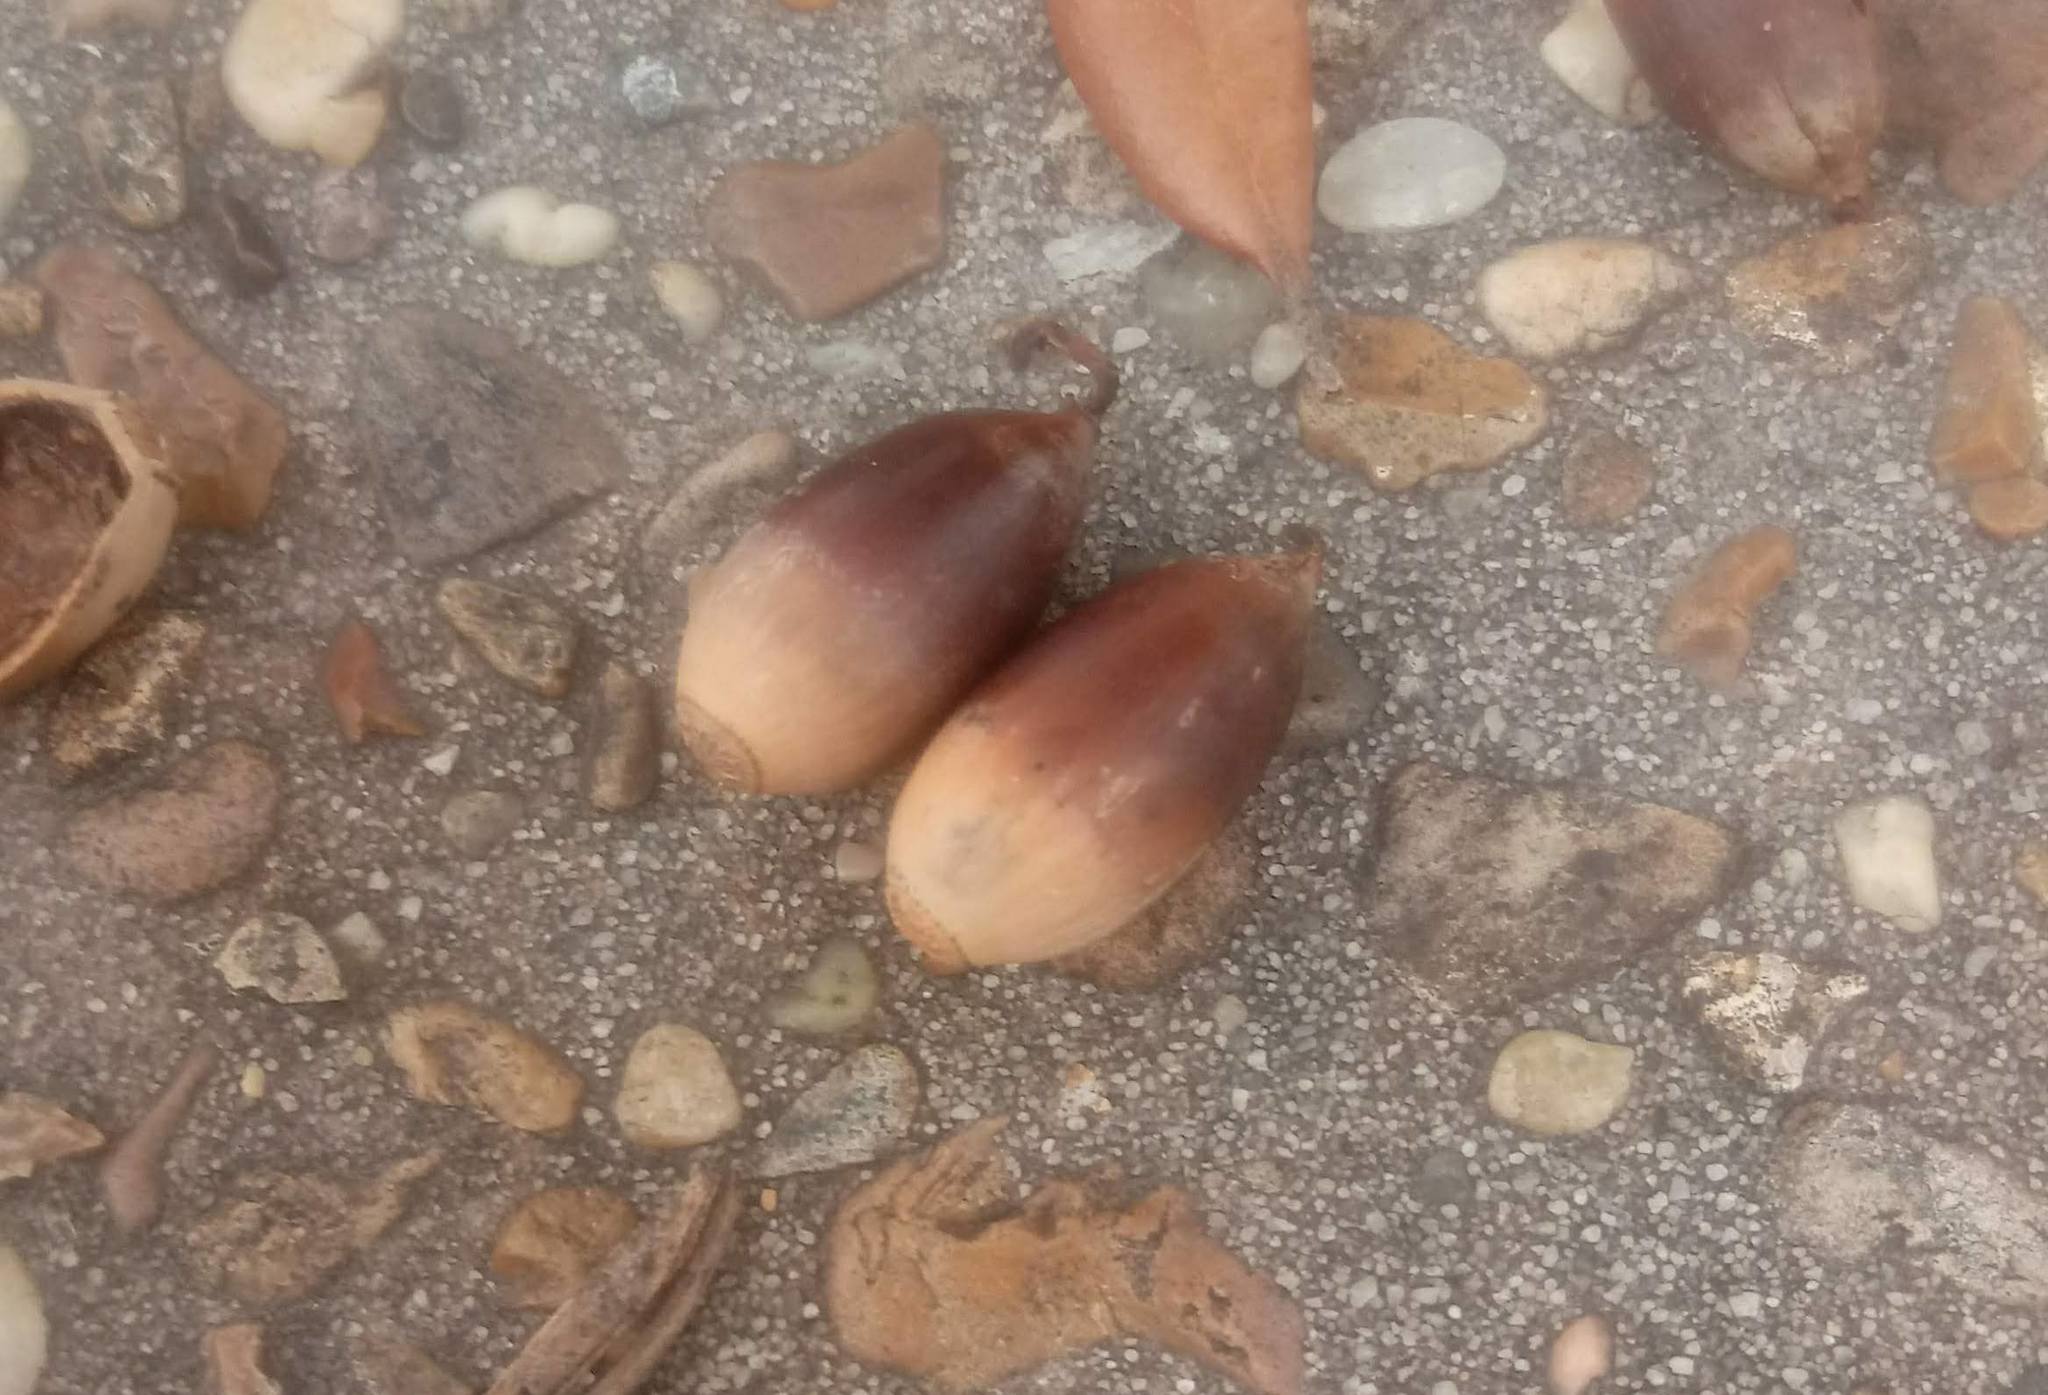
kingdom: Plantae
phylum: Tracheophyta
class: Magnoliopsida
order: Fagales
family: Fagaceae
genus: Quercus
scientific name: Quercus virginiana
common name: Southern live oak
